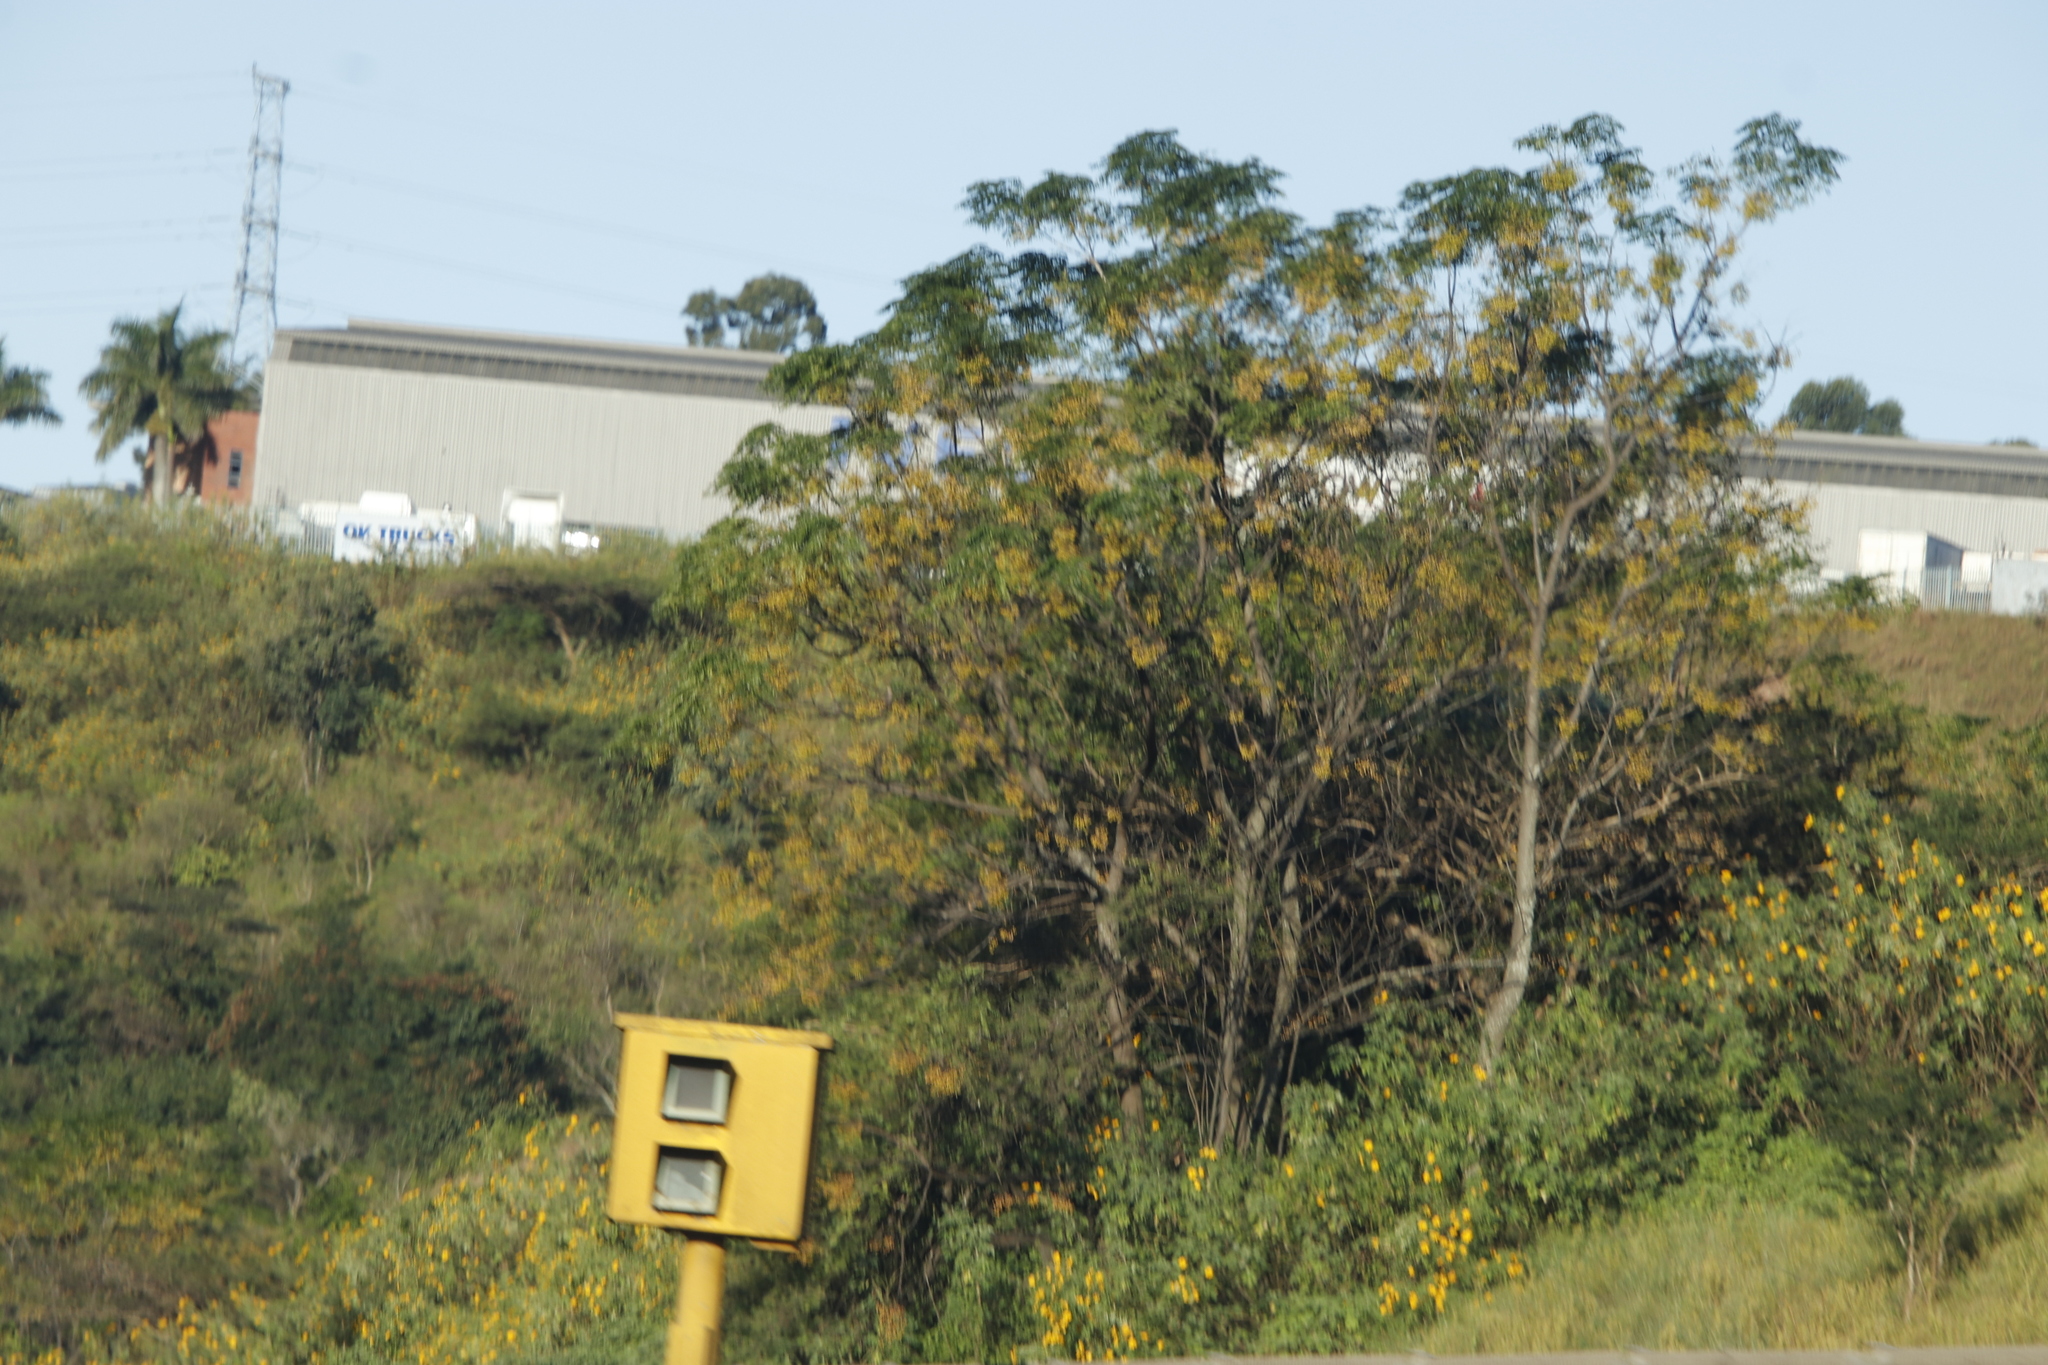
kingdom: Plantae
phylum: Tracheophyta
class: Magnoliopsida
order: Sapindales
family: Meliaceae
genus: Melia
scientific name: Melia azedarach
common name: Chinaberrytree
